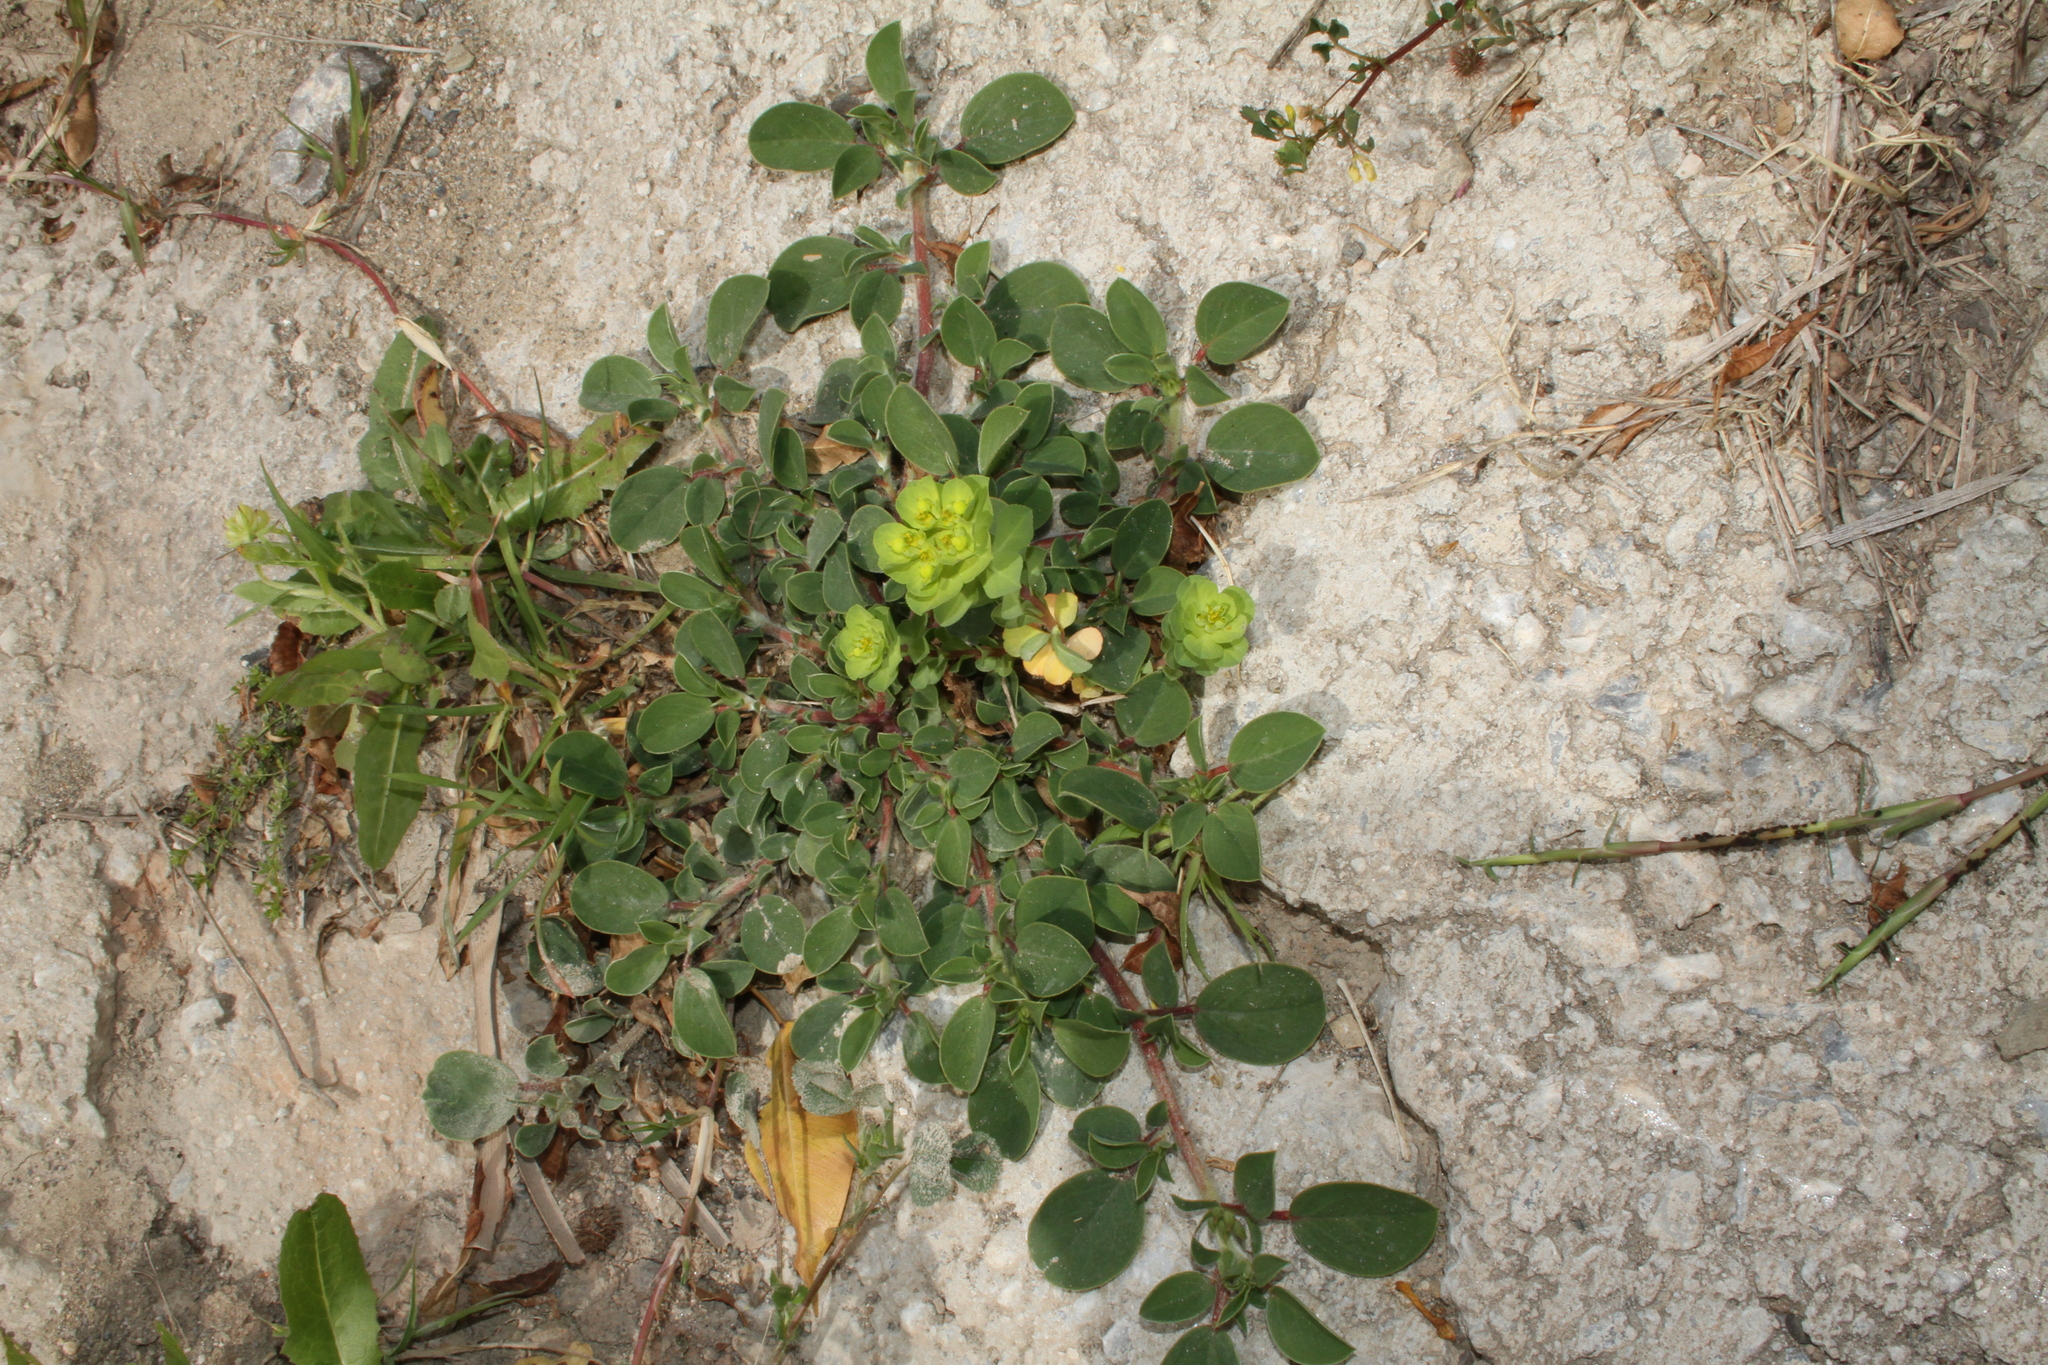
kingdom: Plantae
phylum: Tracheophyta
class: Magnoliopsida
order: Malpighiales
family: Euphorbiaceae
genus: Euphorbia
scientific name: Euphorbia helioscopia
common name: Sun spurge
